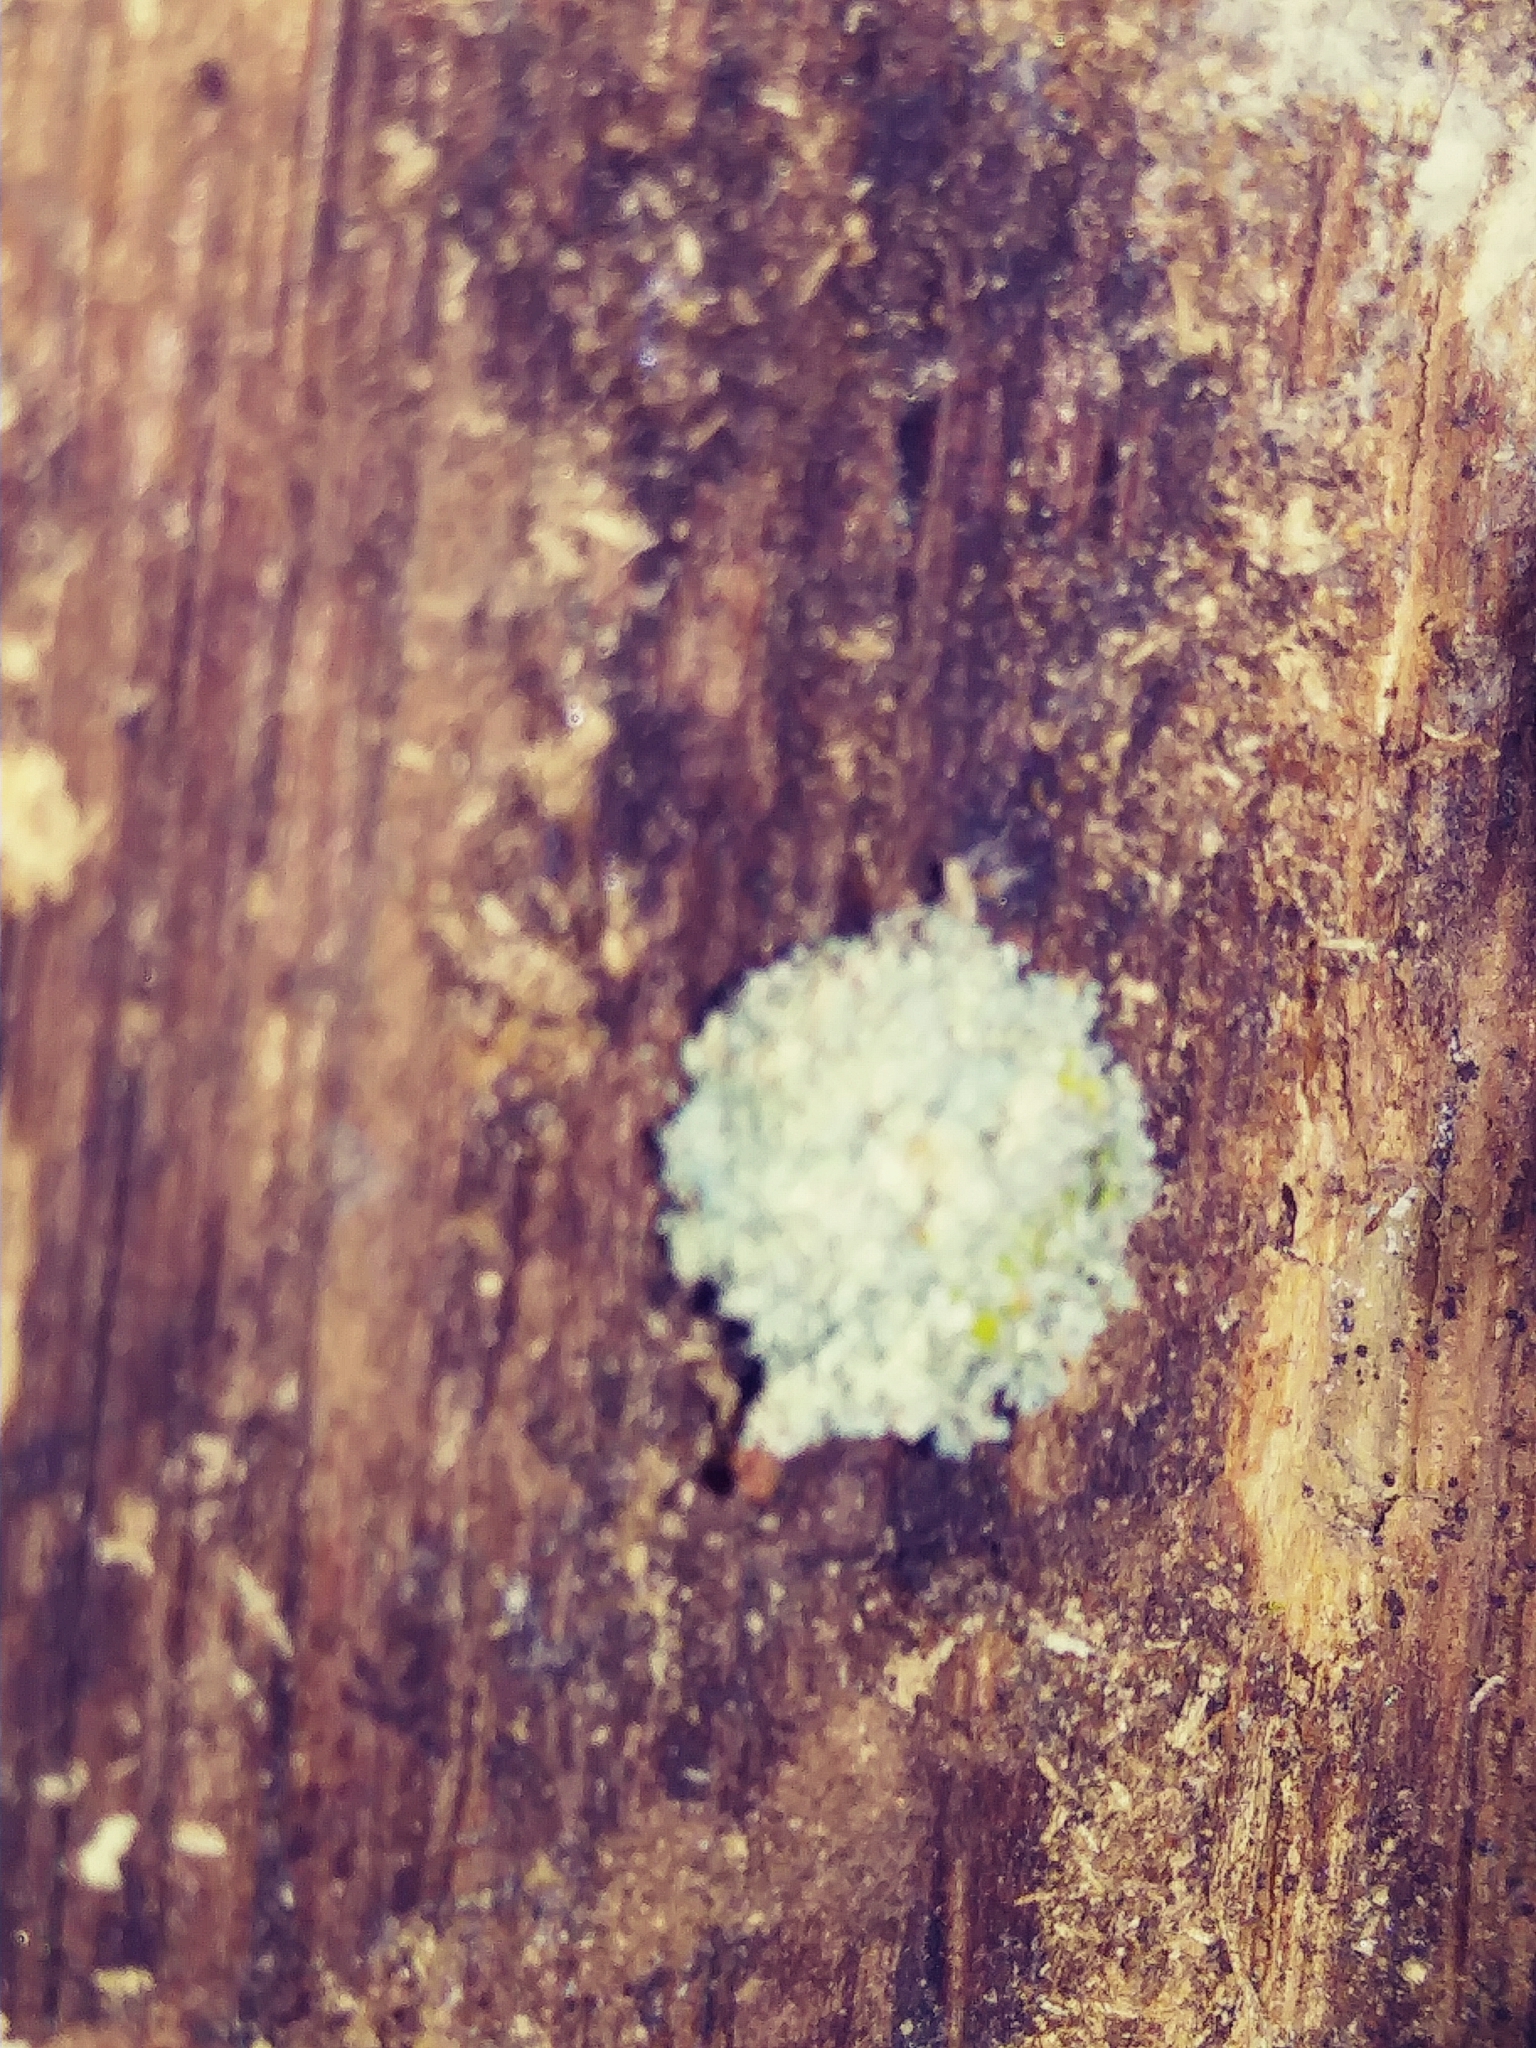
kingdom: Animalia
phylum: Arthropoda
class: Insecta
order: Neuroptera
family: Chrysopidae
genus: Leucochrysa
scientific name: Leucochrysa pavida
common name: Lichen-carrying green lacewing
